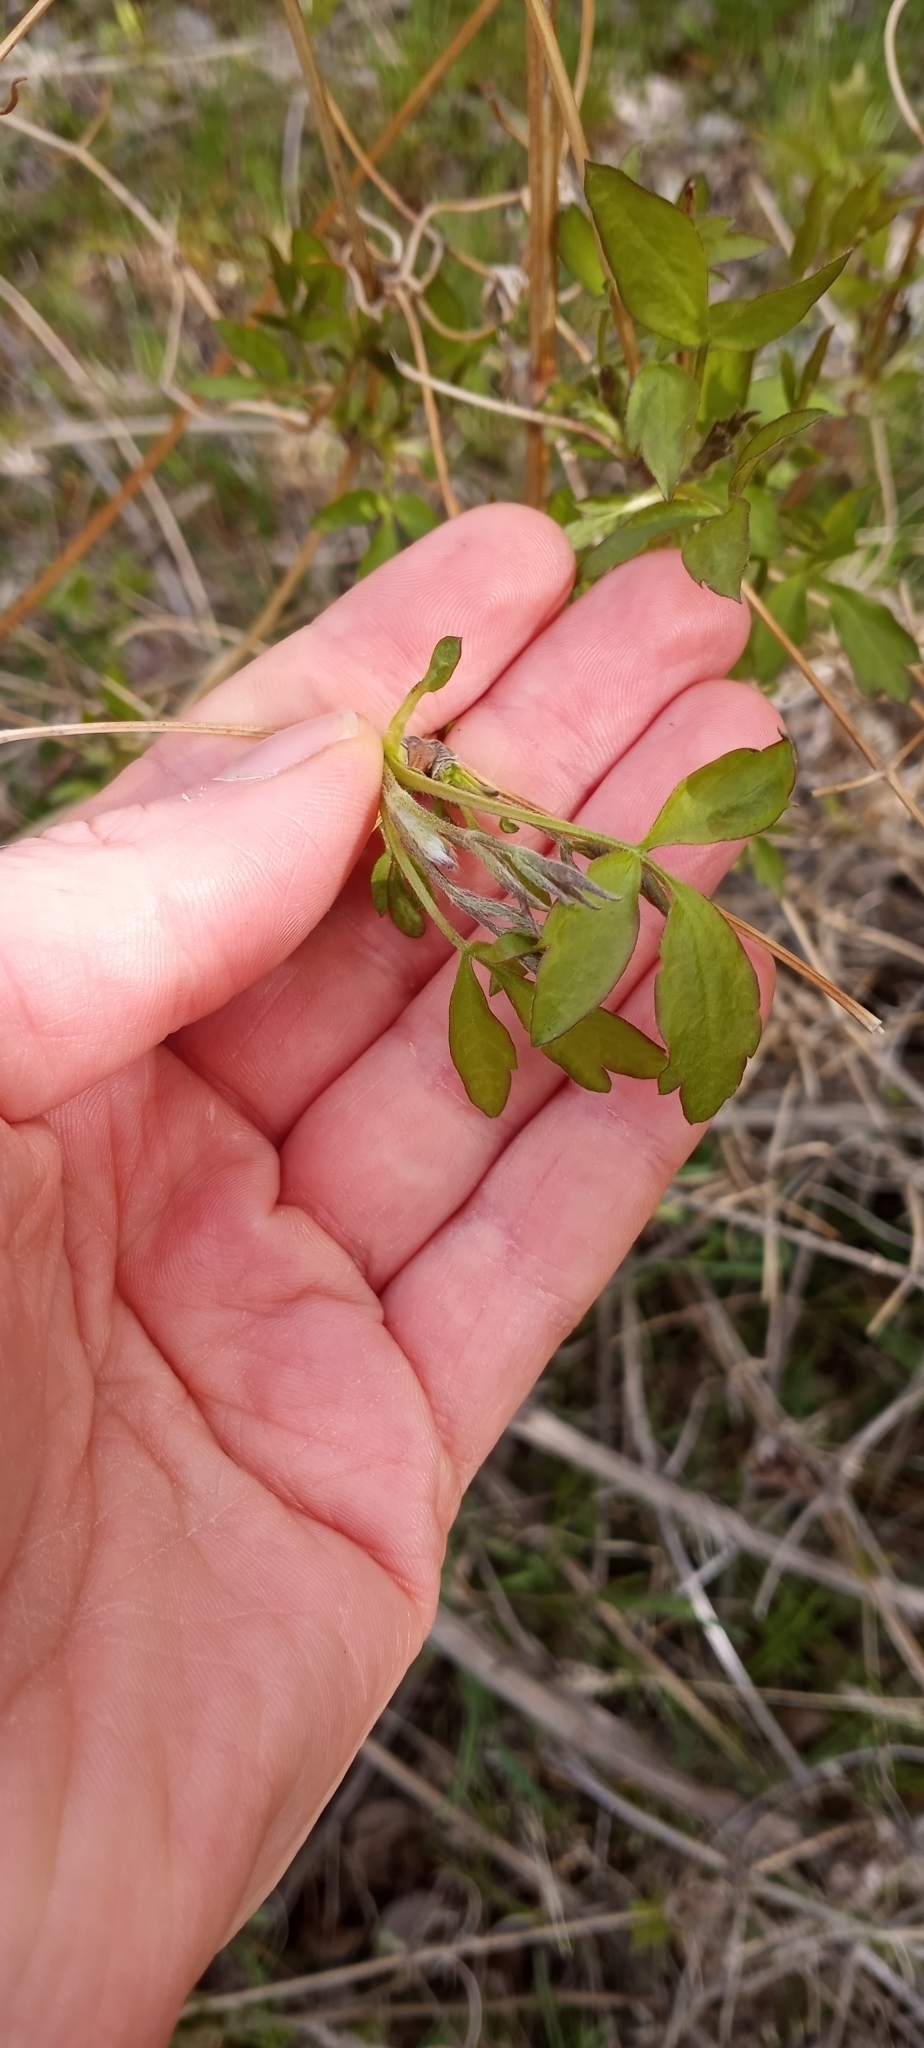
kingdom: Plantae
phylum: Tracheophyta
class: Magnoliopsida
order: Ranunculales
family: Ranunculaceae
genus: Clematis
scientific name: Clematis ligusticifolia
